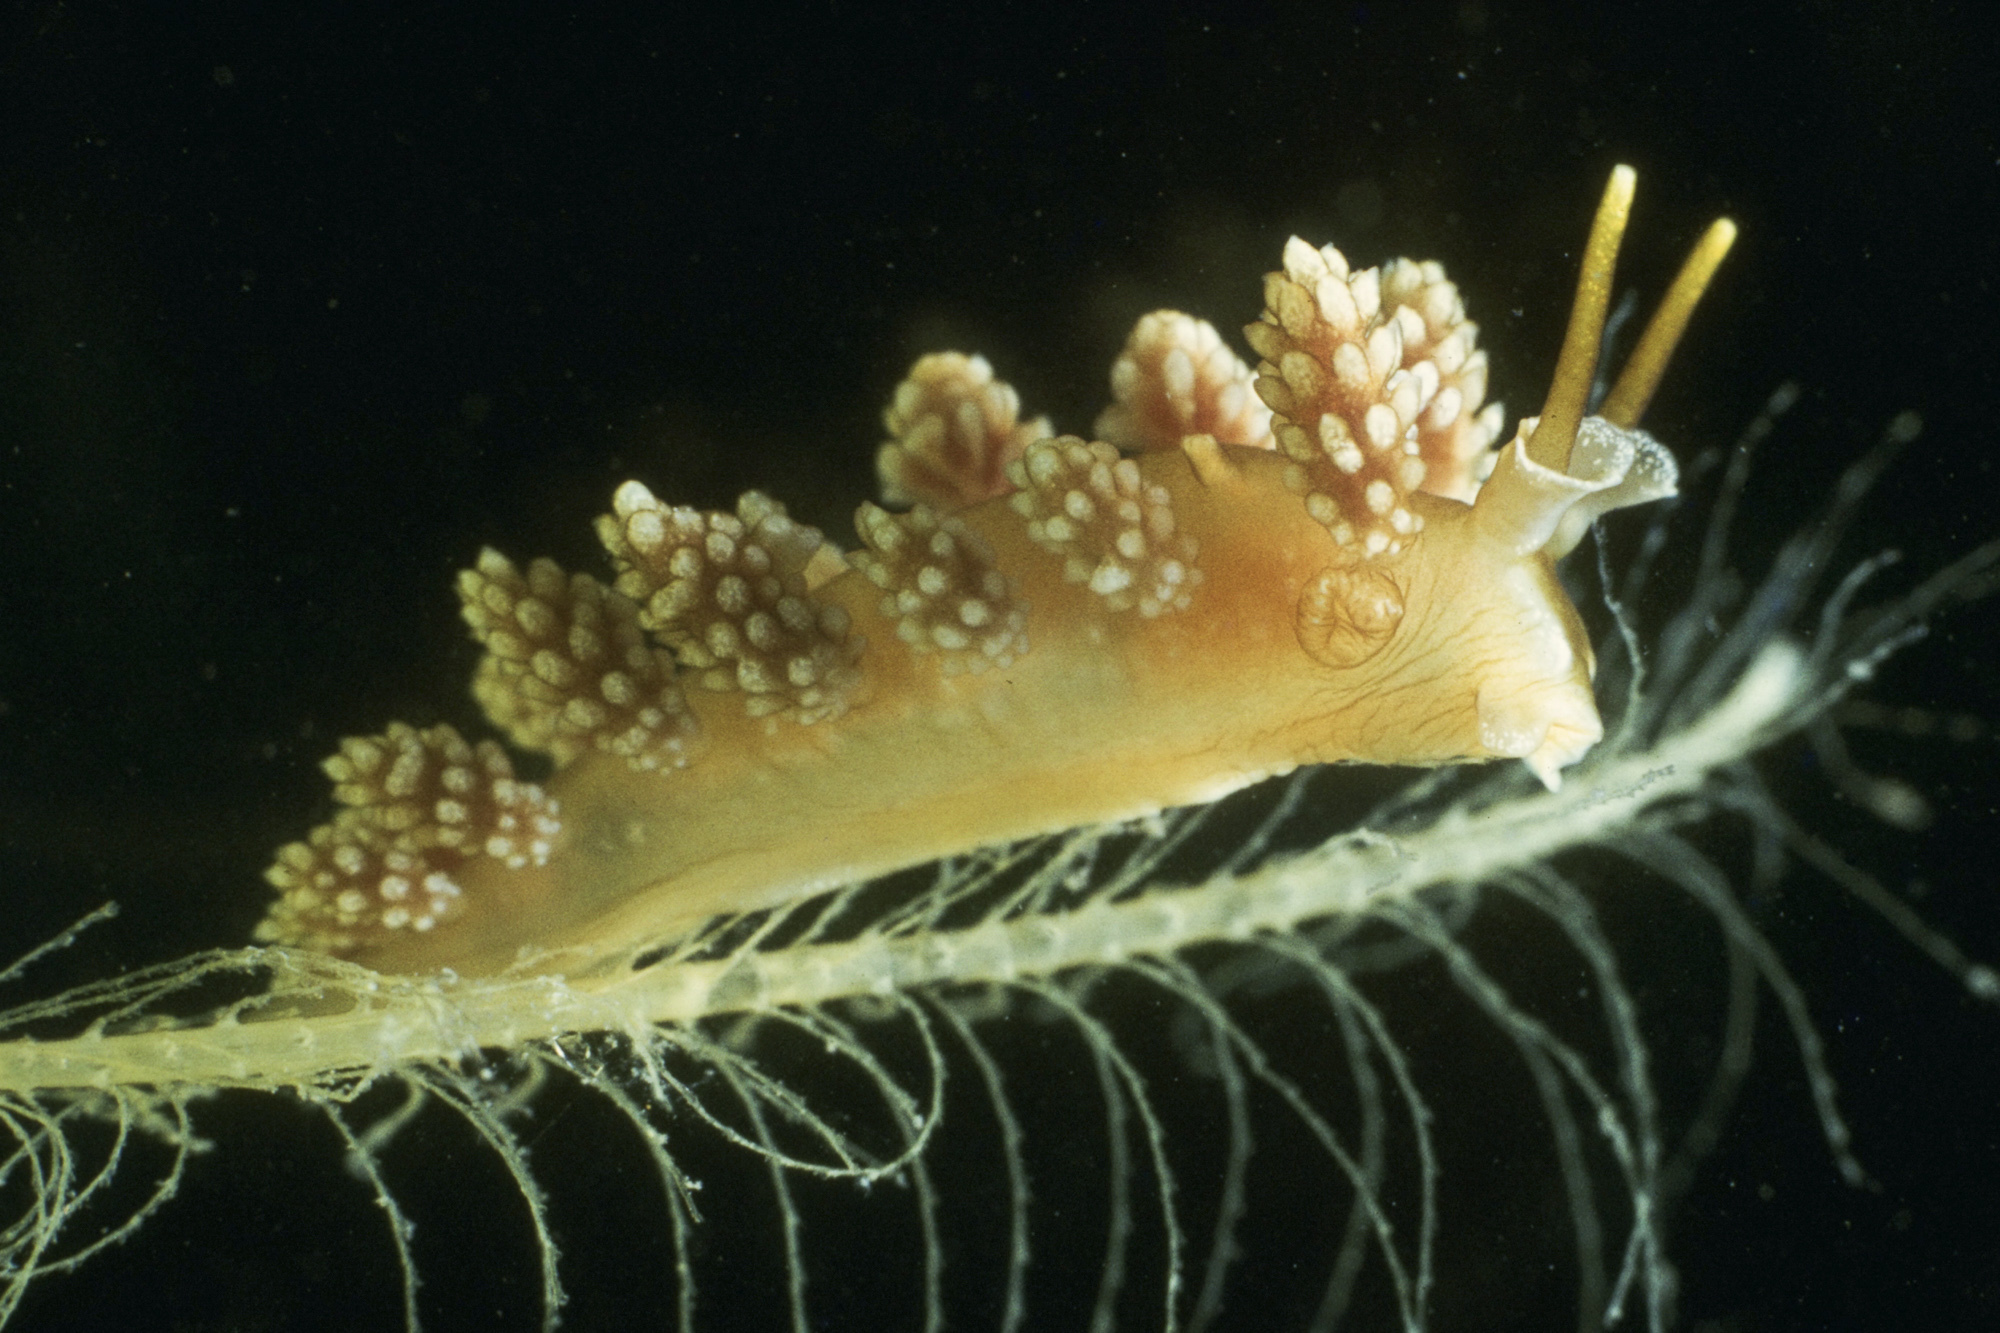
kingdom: Animalia
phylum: Mollusca
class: Gastropoda
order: Nudibranchia
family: Dotidae
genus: Doto
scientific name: Doto fragilis
